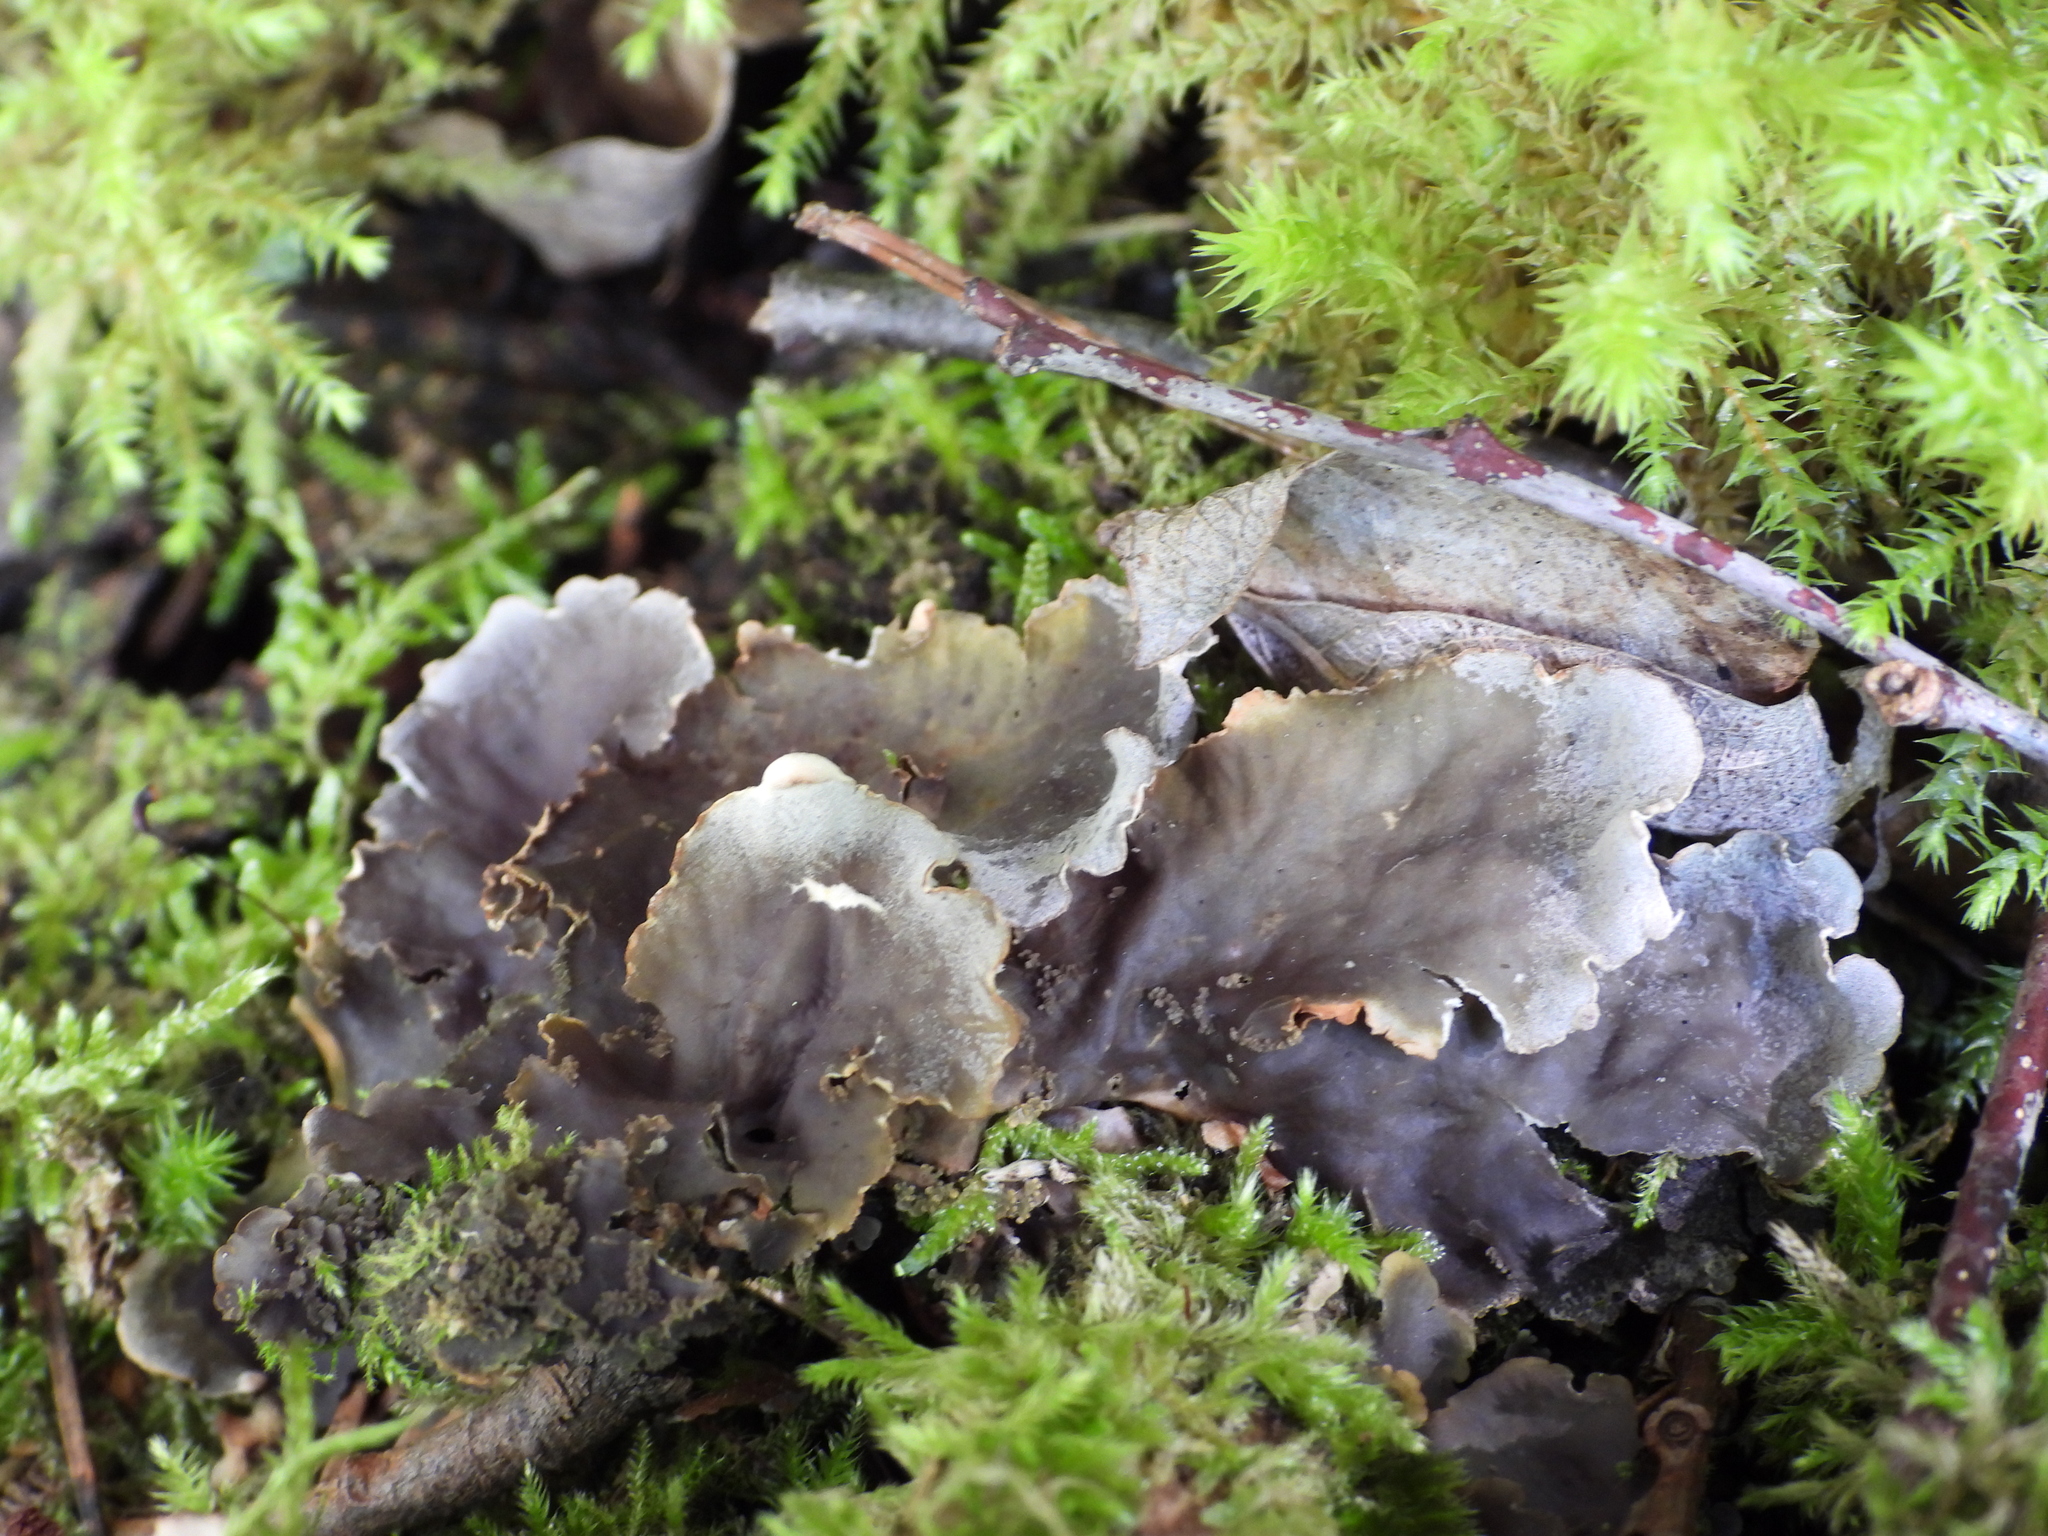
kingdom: Fungi
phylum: Ascomycota
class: Lecanoromycetes
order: Peltigerales
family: Peltigeraceae
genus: Peltigera
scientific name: Peltigera praetextata
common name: Scaly dog-lichen
